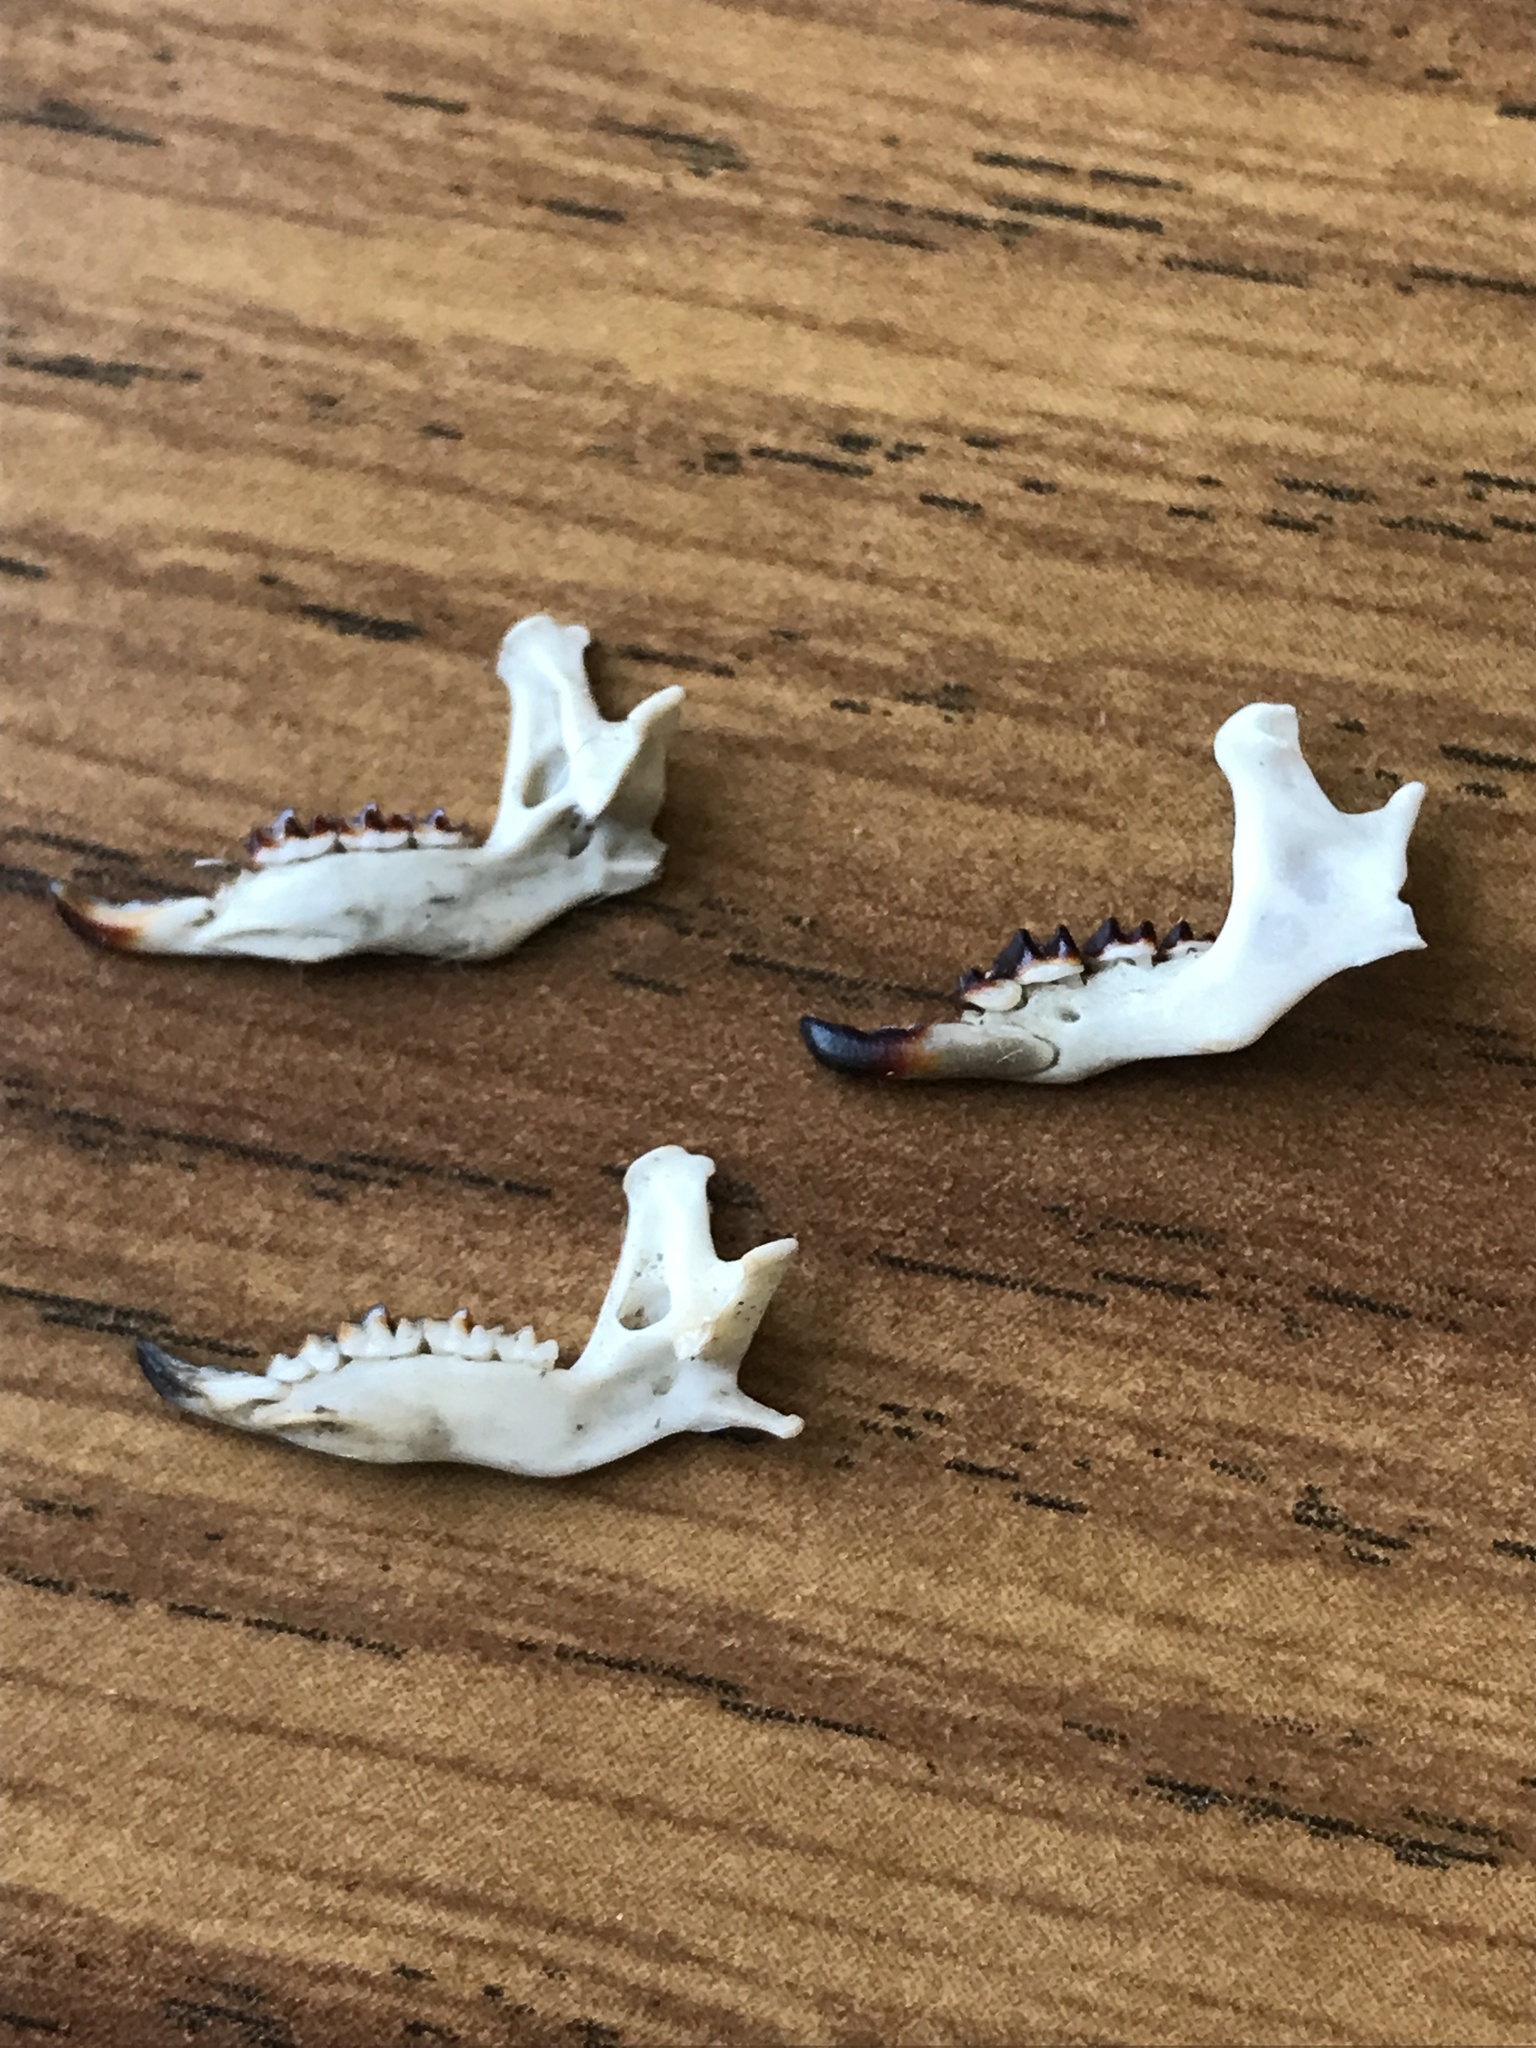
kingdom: Animalia
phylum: Chordata
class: Mammalia
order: Soricomorpha
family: Soricidae
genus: Blarina
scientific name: Blarina brevicauda
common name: Northern short-tailed shrew
